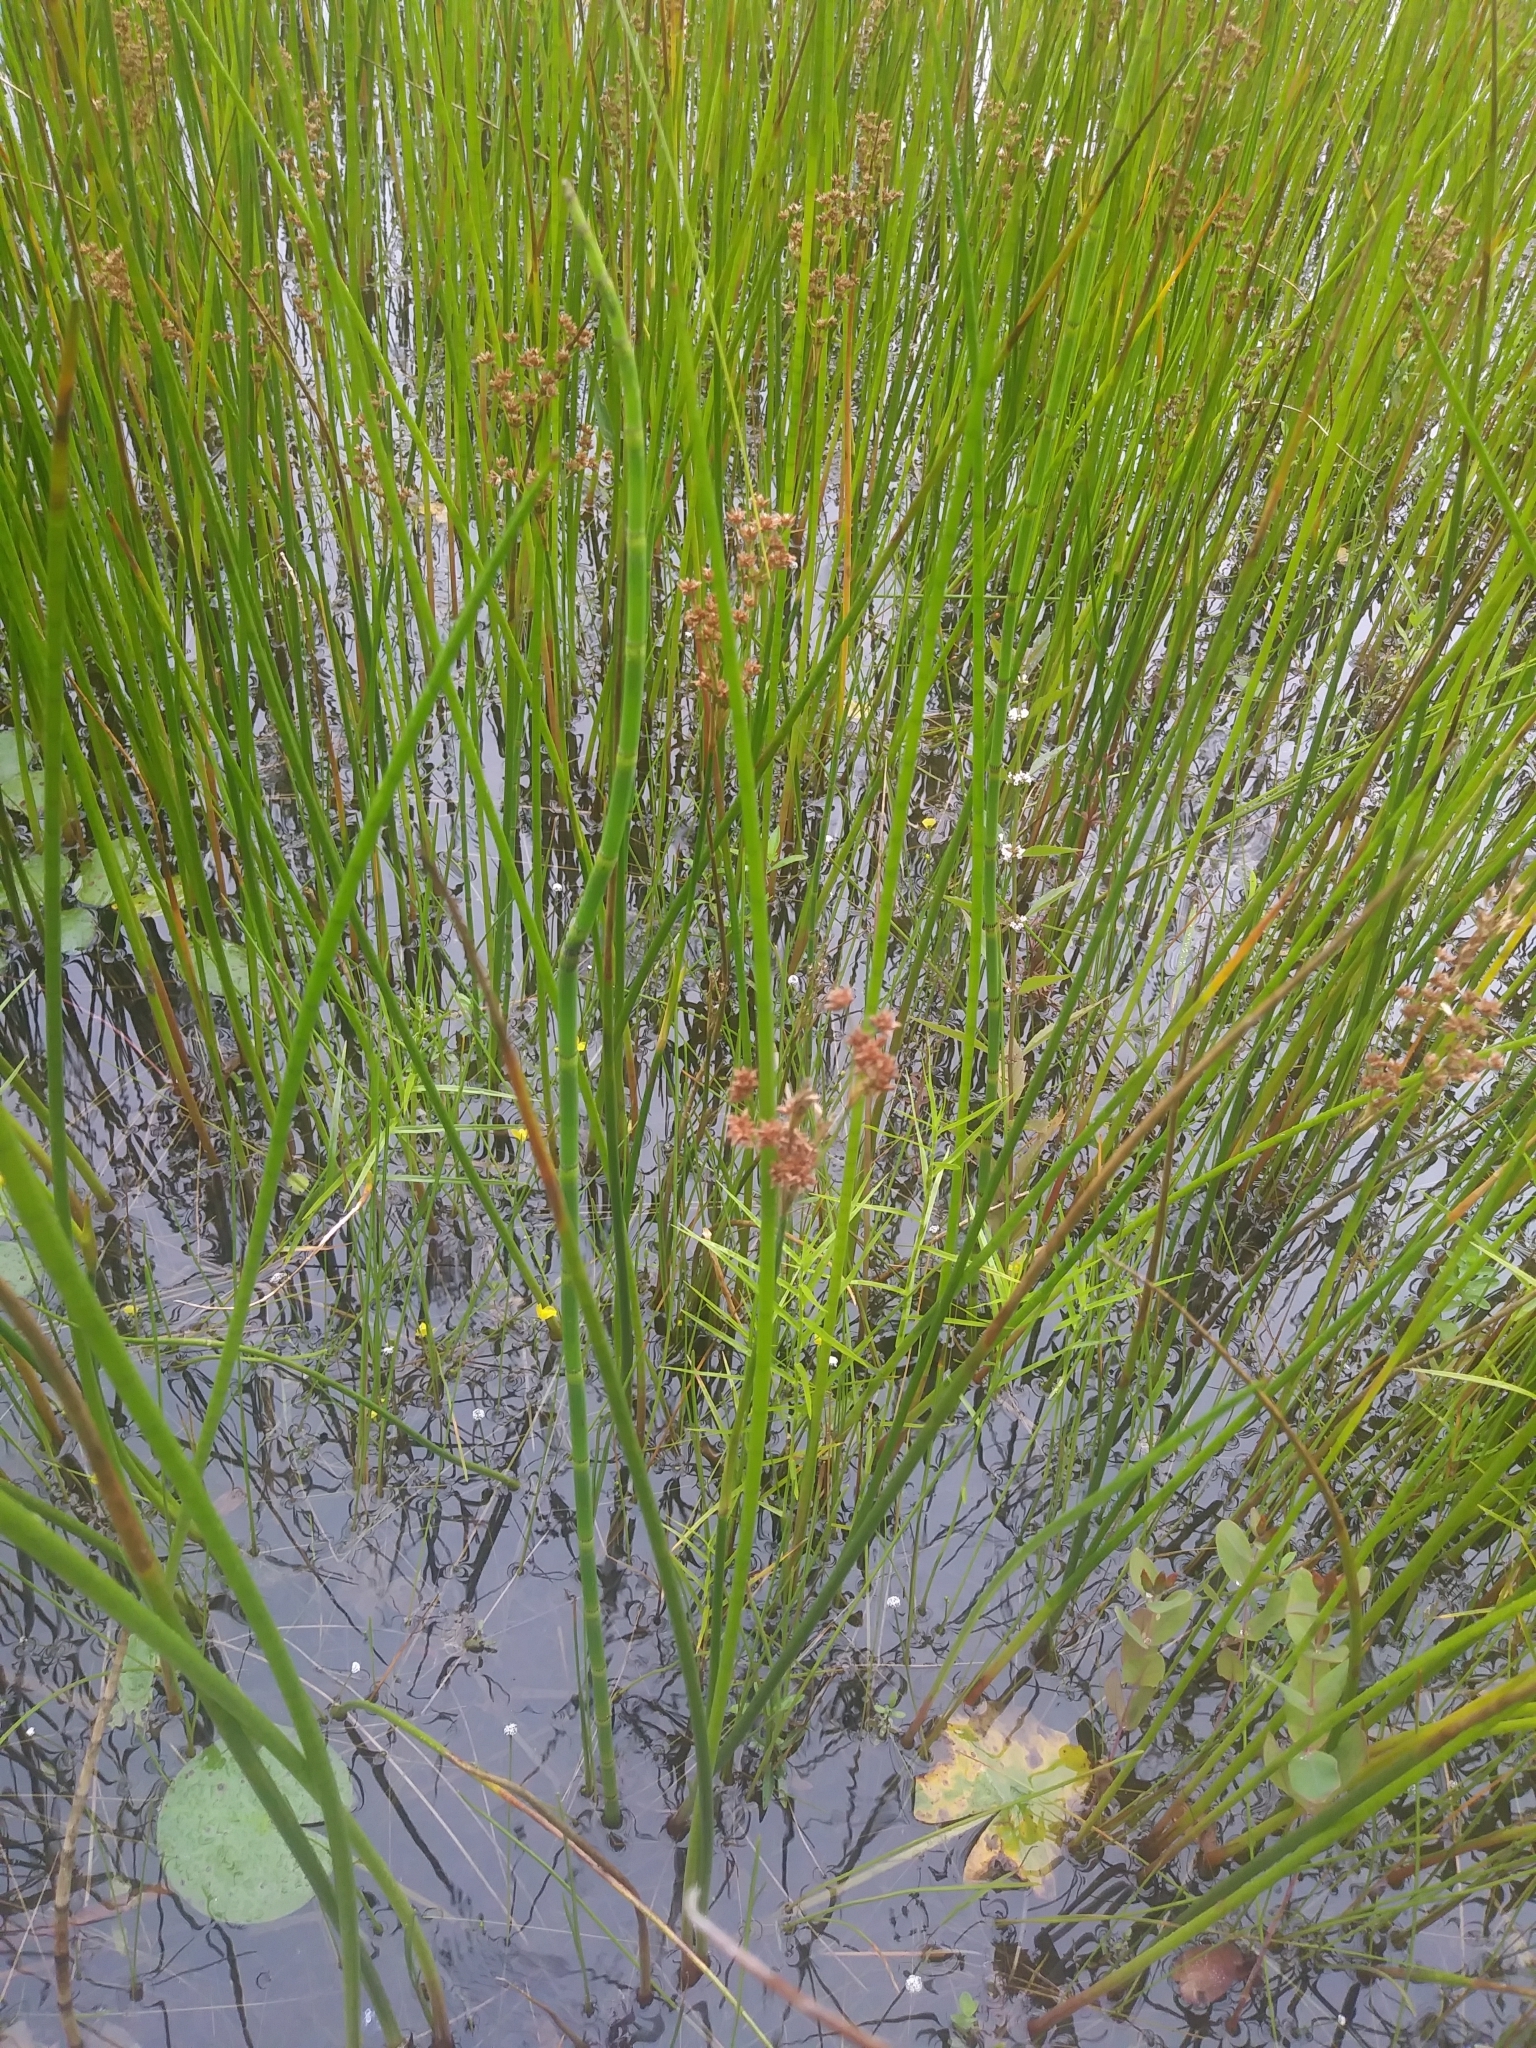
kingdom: Plantae
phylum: Tracheophyta
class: Liliopsida
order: Poales
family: Juncaceae
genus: Juncus
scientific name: Juncus militaris
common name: Bayonet rush
